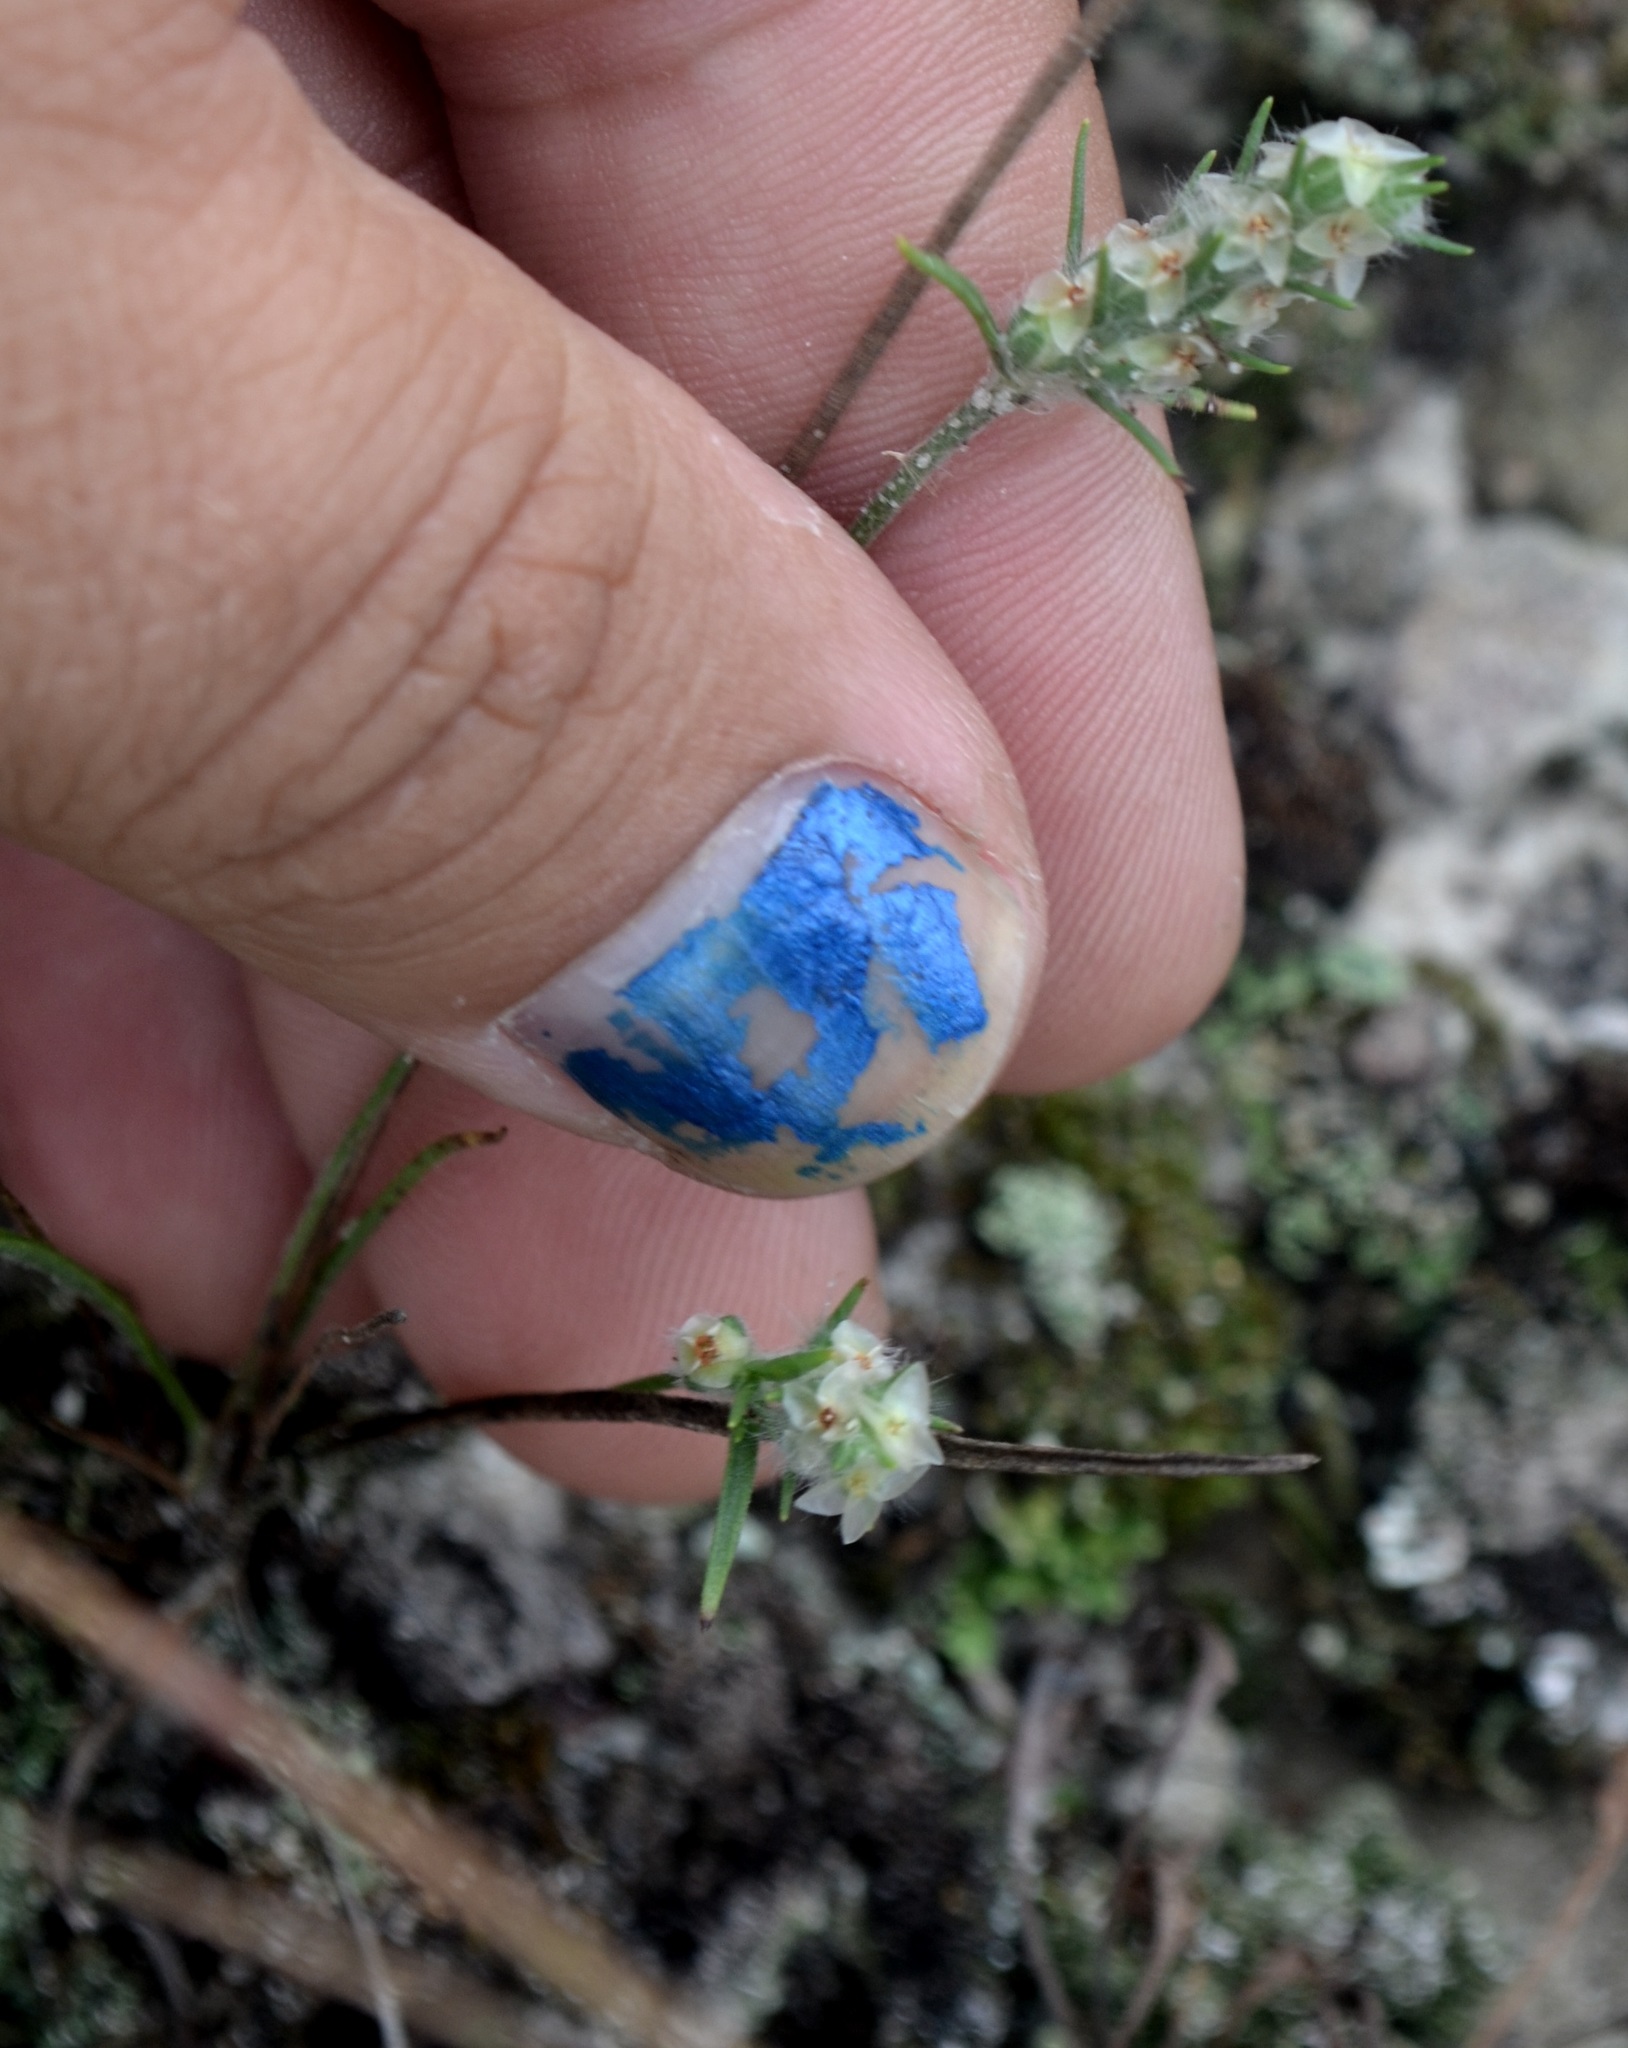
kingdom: Plantae
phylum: Tracheophyta
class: Magnoliopsida
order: Lamiales
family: Plantaginaceae
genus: Plantago
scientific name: Plantago patagonica
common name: Patagonia indian-wheat
